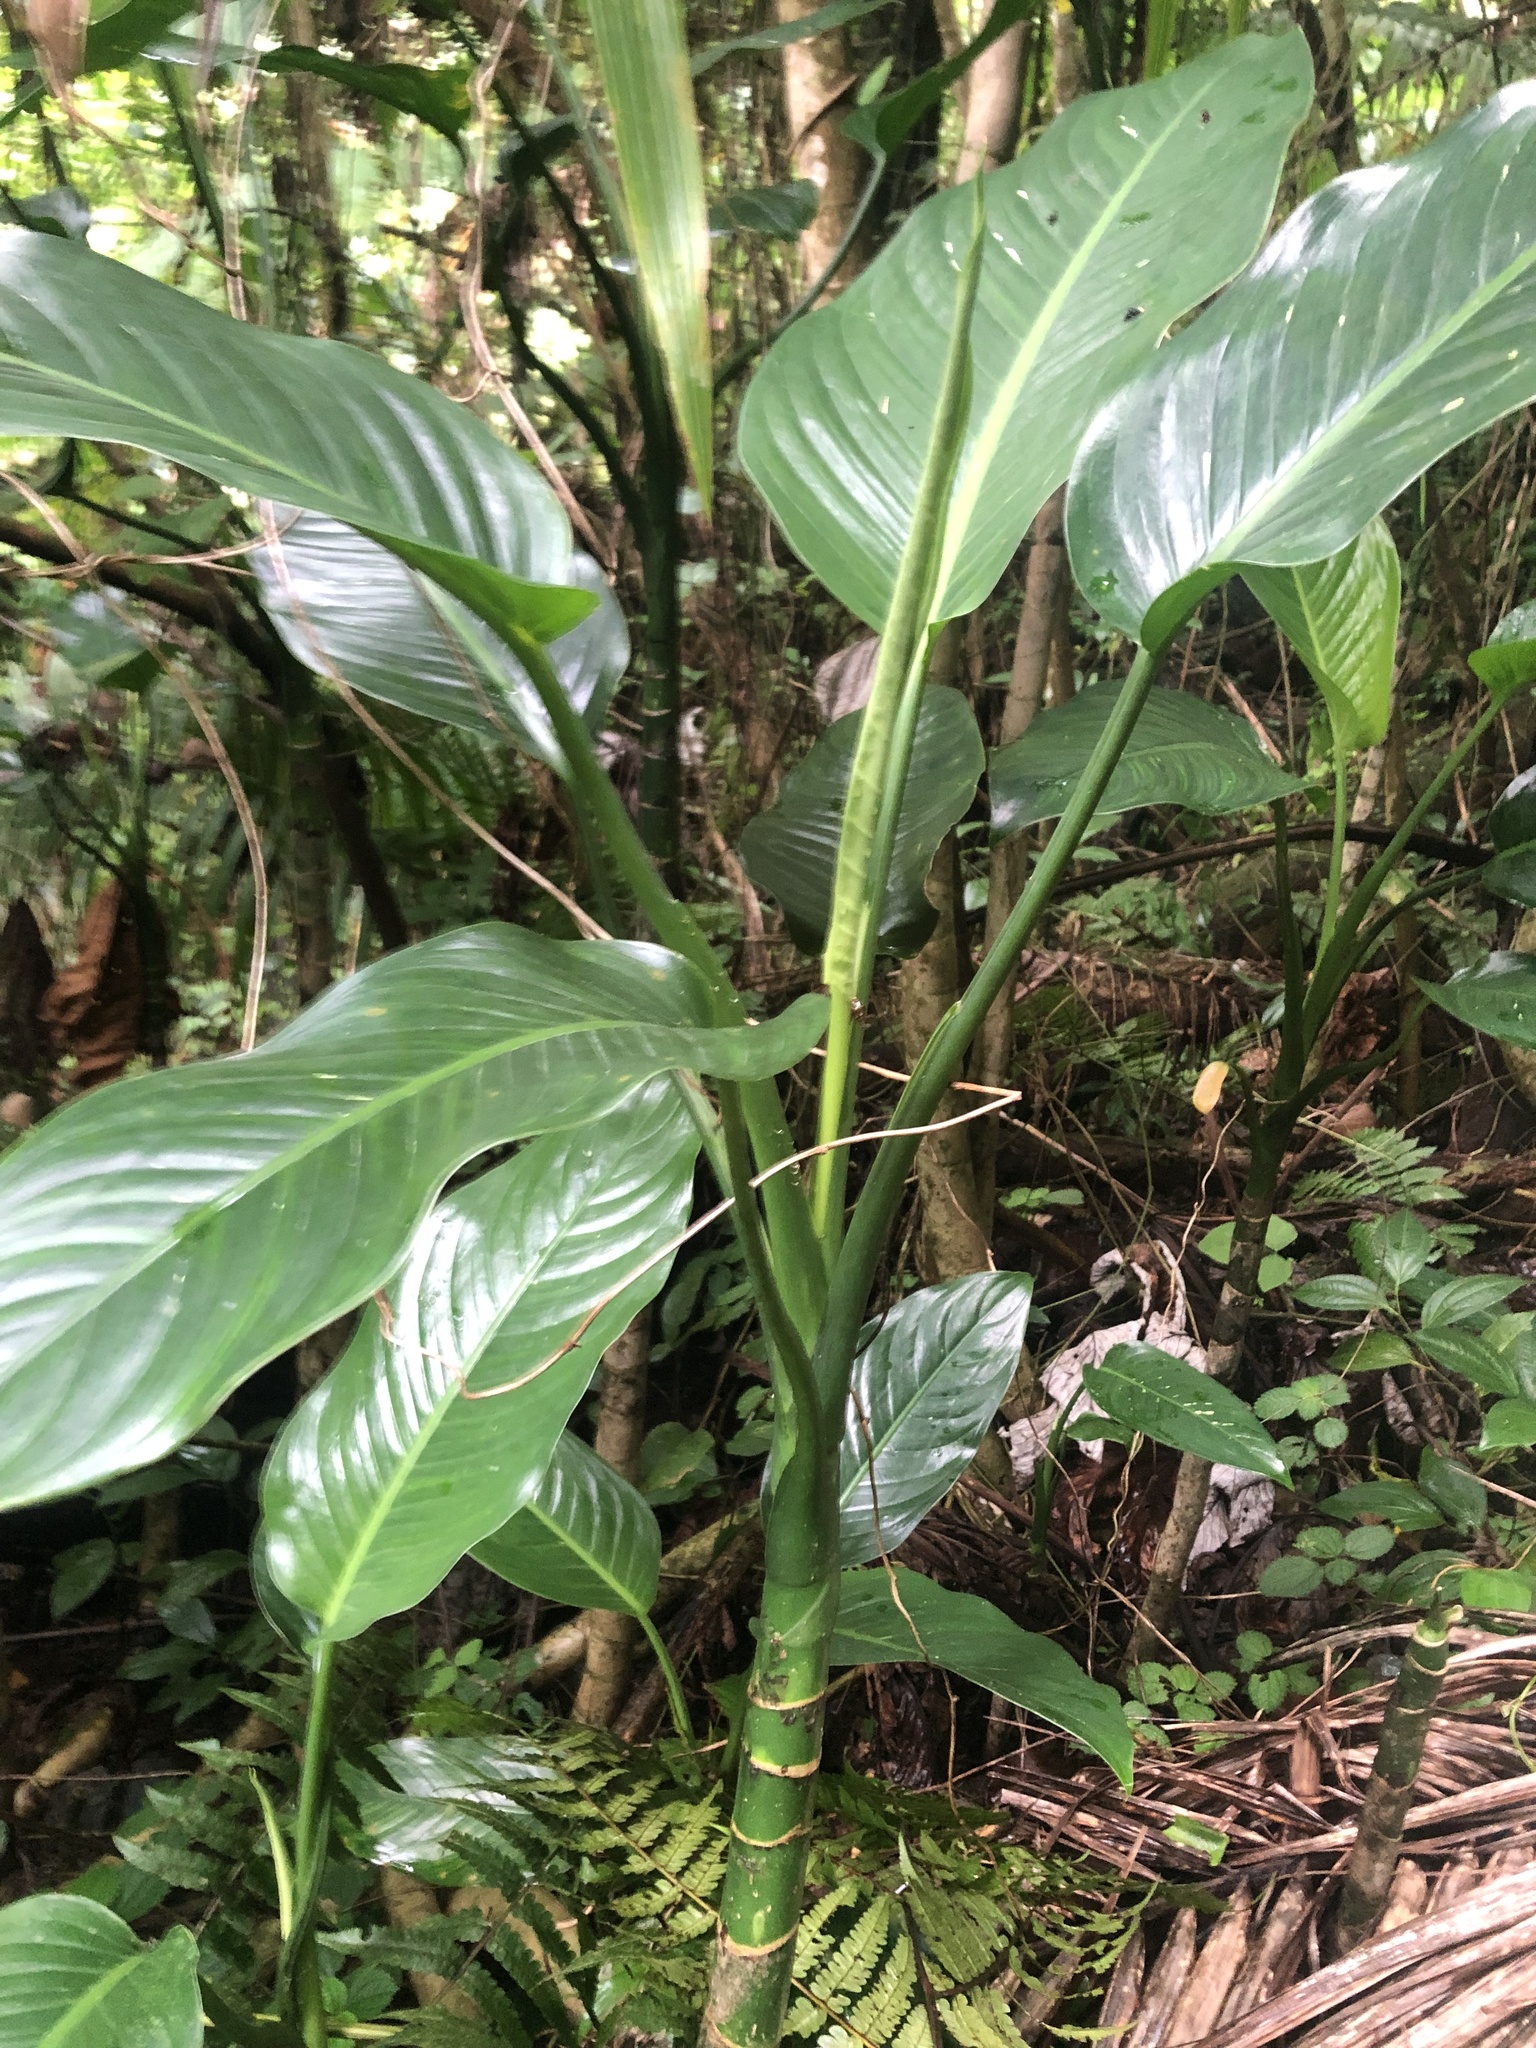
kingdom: Plantae
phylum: Tracheophyta
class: Liliopsida
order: Alismatales
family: Araceae
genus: Dieffenbachia
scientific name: Dieffenbachia seguine
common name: Dumbcane
